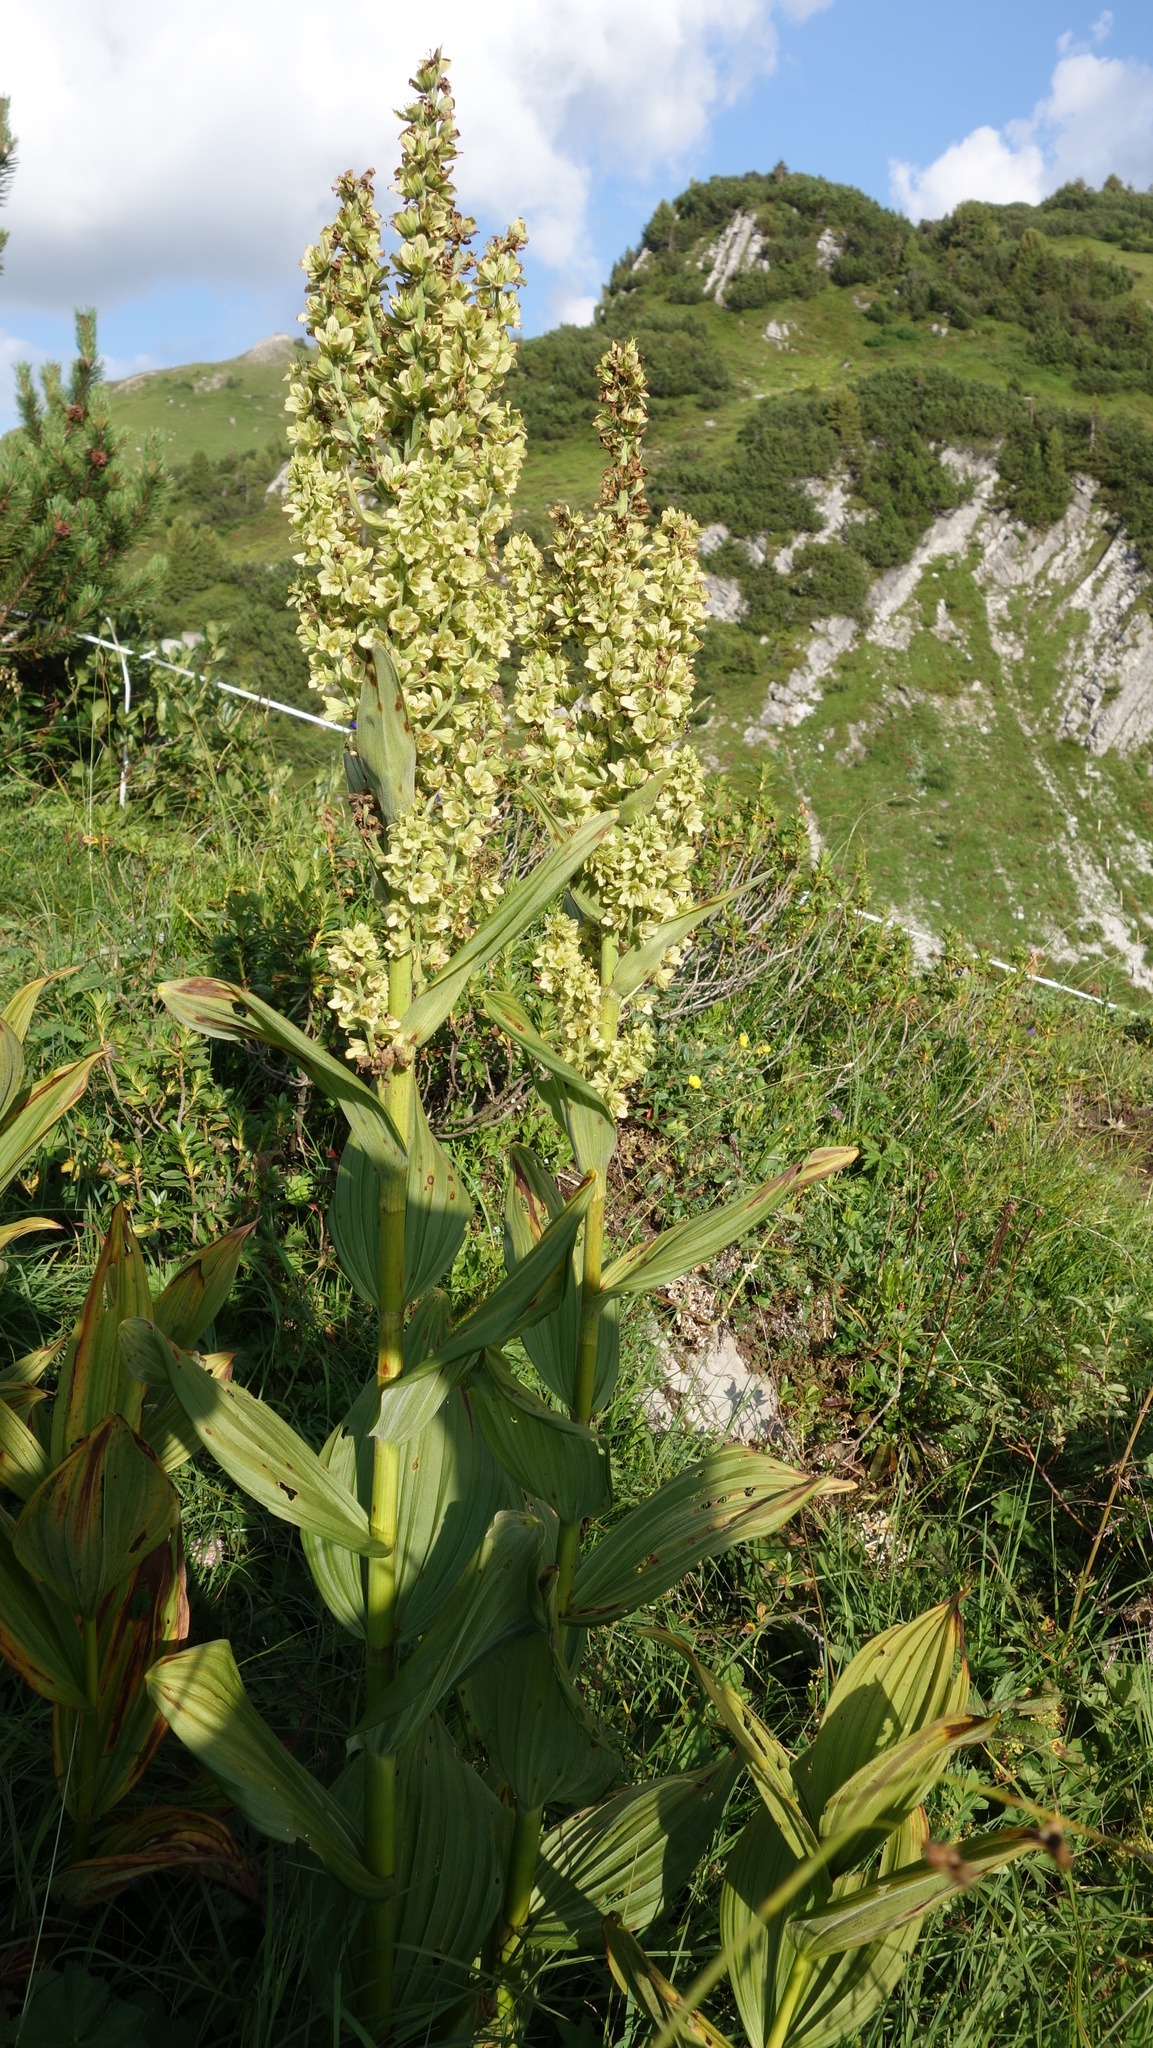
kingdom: Plantae
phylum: Tracheophyta
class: Liliopsida
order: Liliales
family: Melanthiaceae
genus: Veratrum
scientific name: Veratrum album
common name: White veratrum
